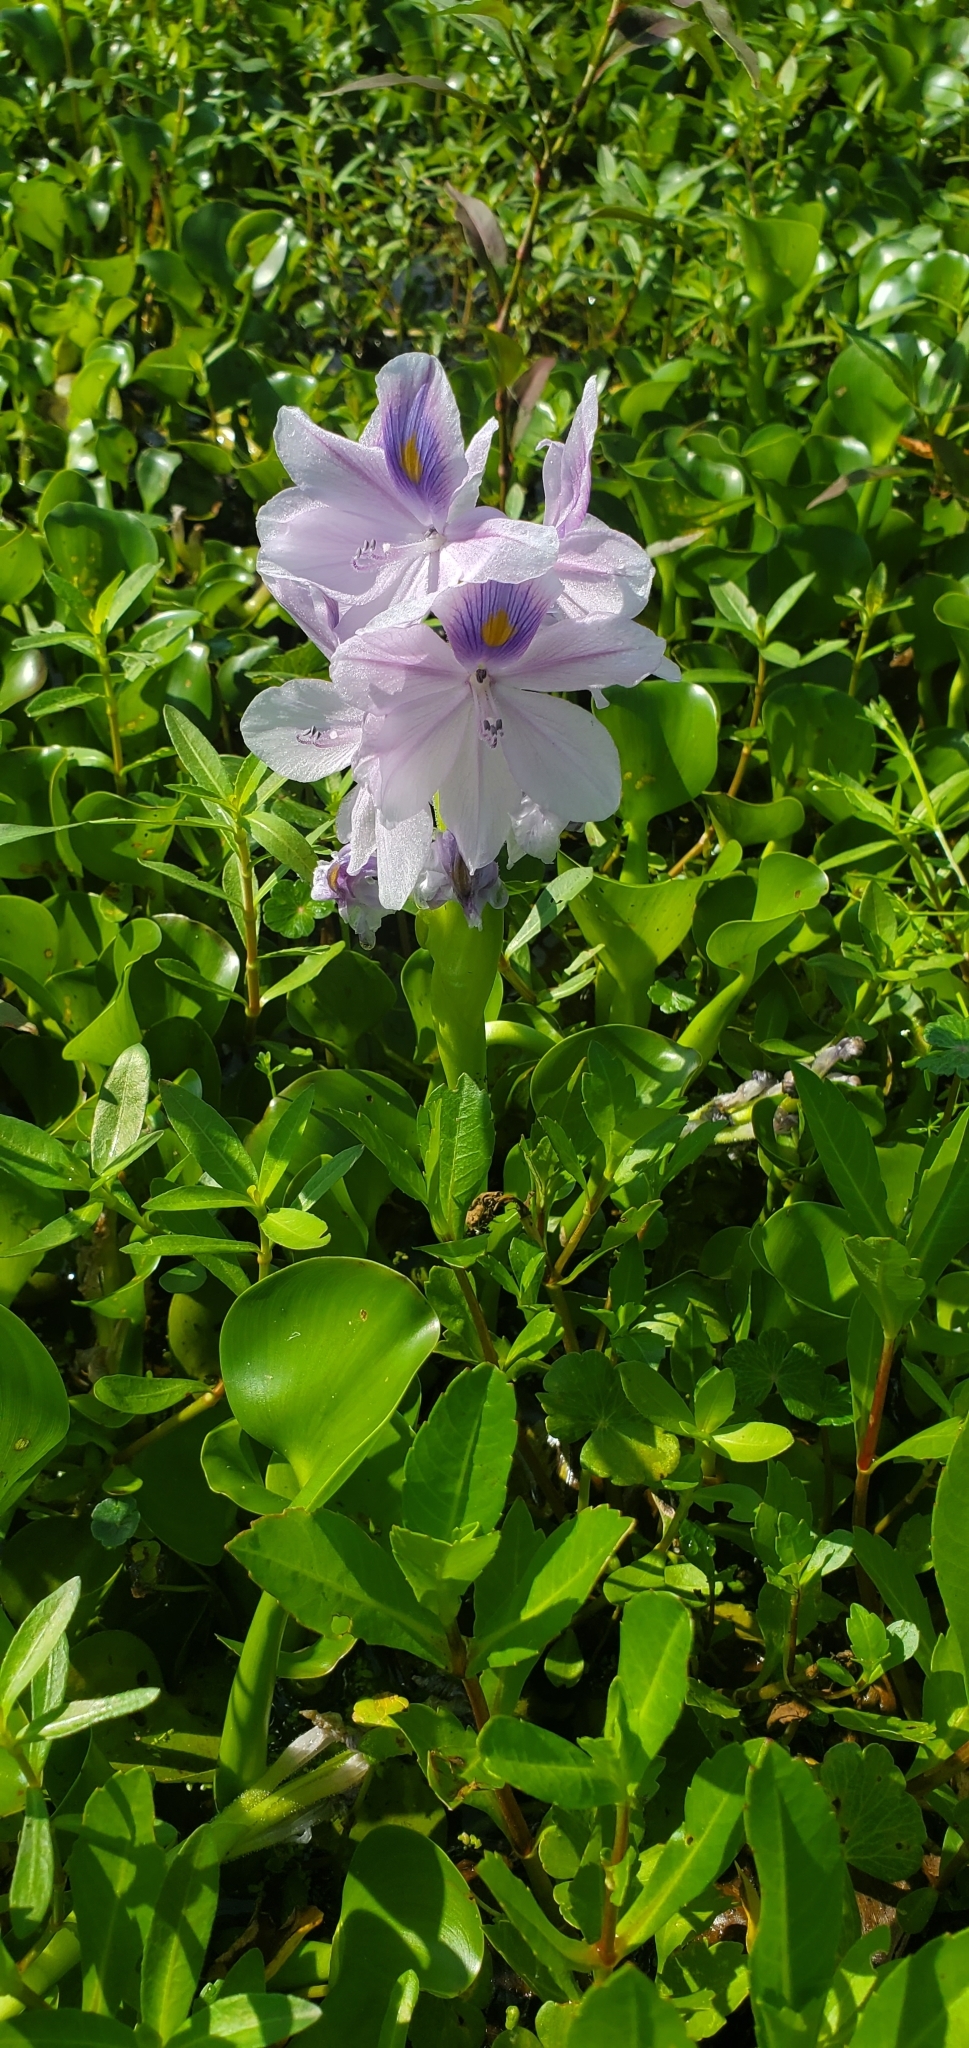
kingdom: Plantae
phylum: Tracheophyta
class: Liliopsida
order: Commelinales
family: Pontederiaceae
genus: Pontederia
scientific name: Pontederia crassipes
